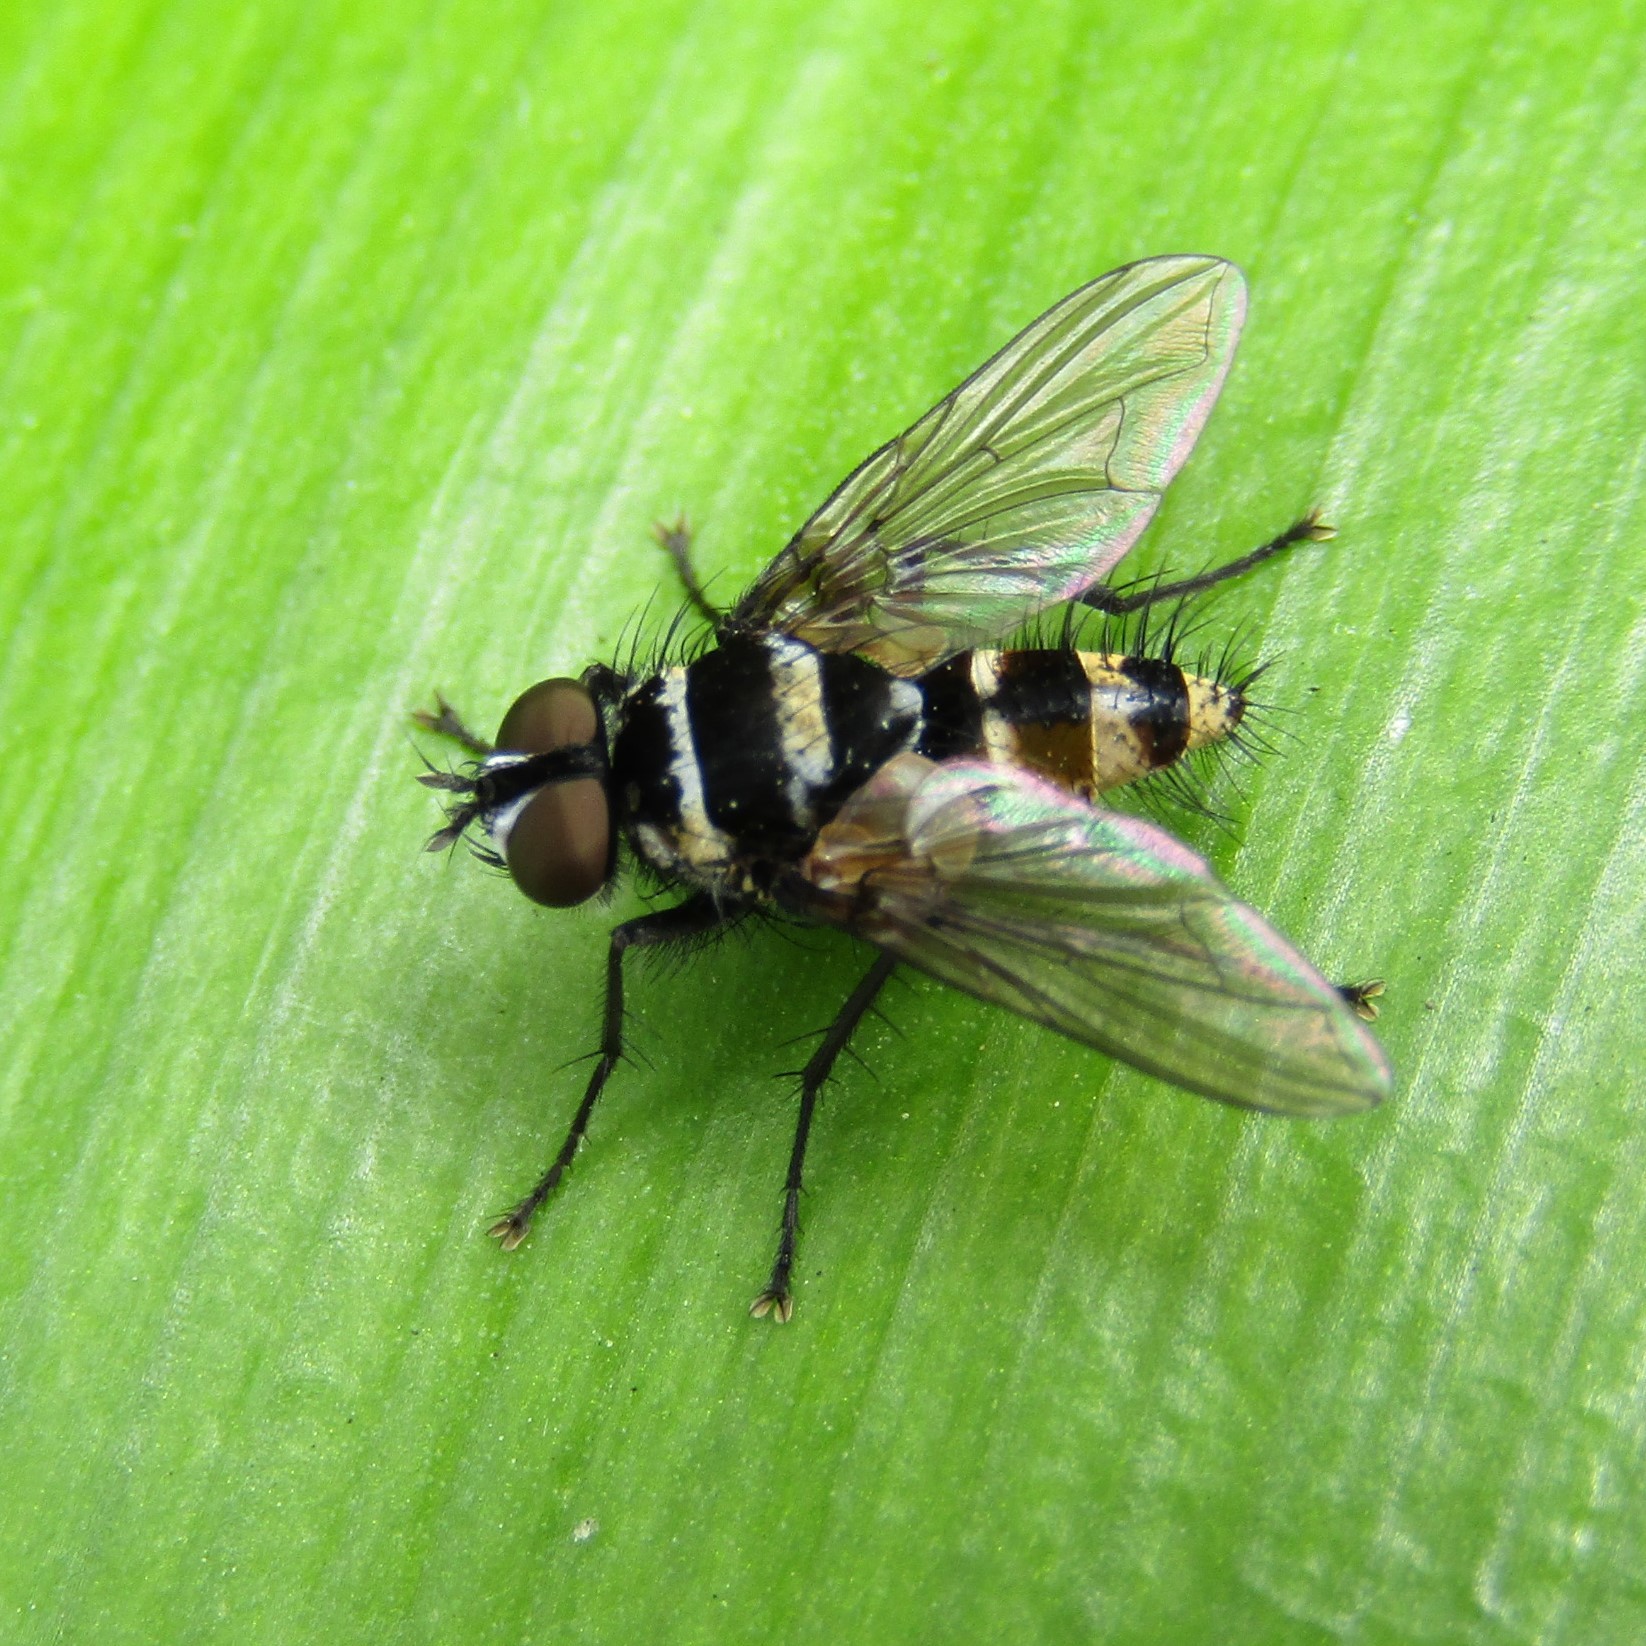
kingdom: Animalia
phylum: Arthropoda
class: Insecta
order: Diptera
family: Tachinidae
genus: Trigonospila
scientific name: Trigonospila brevifacies
